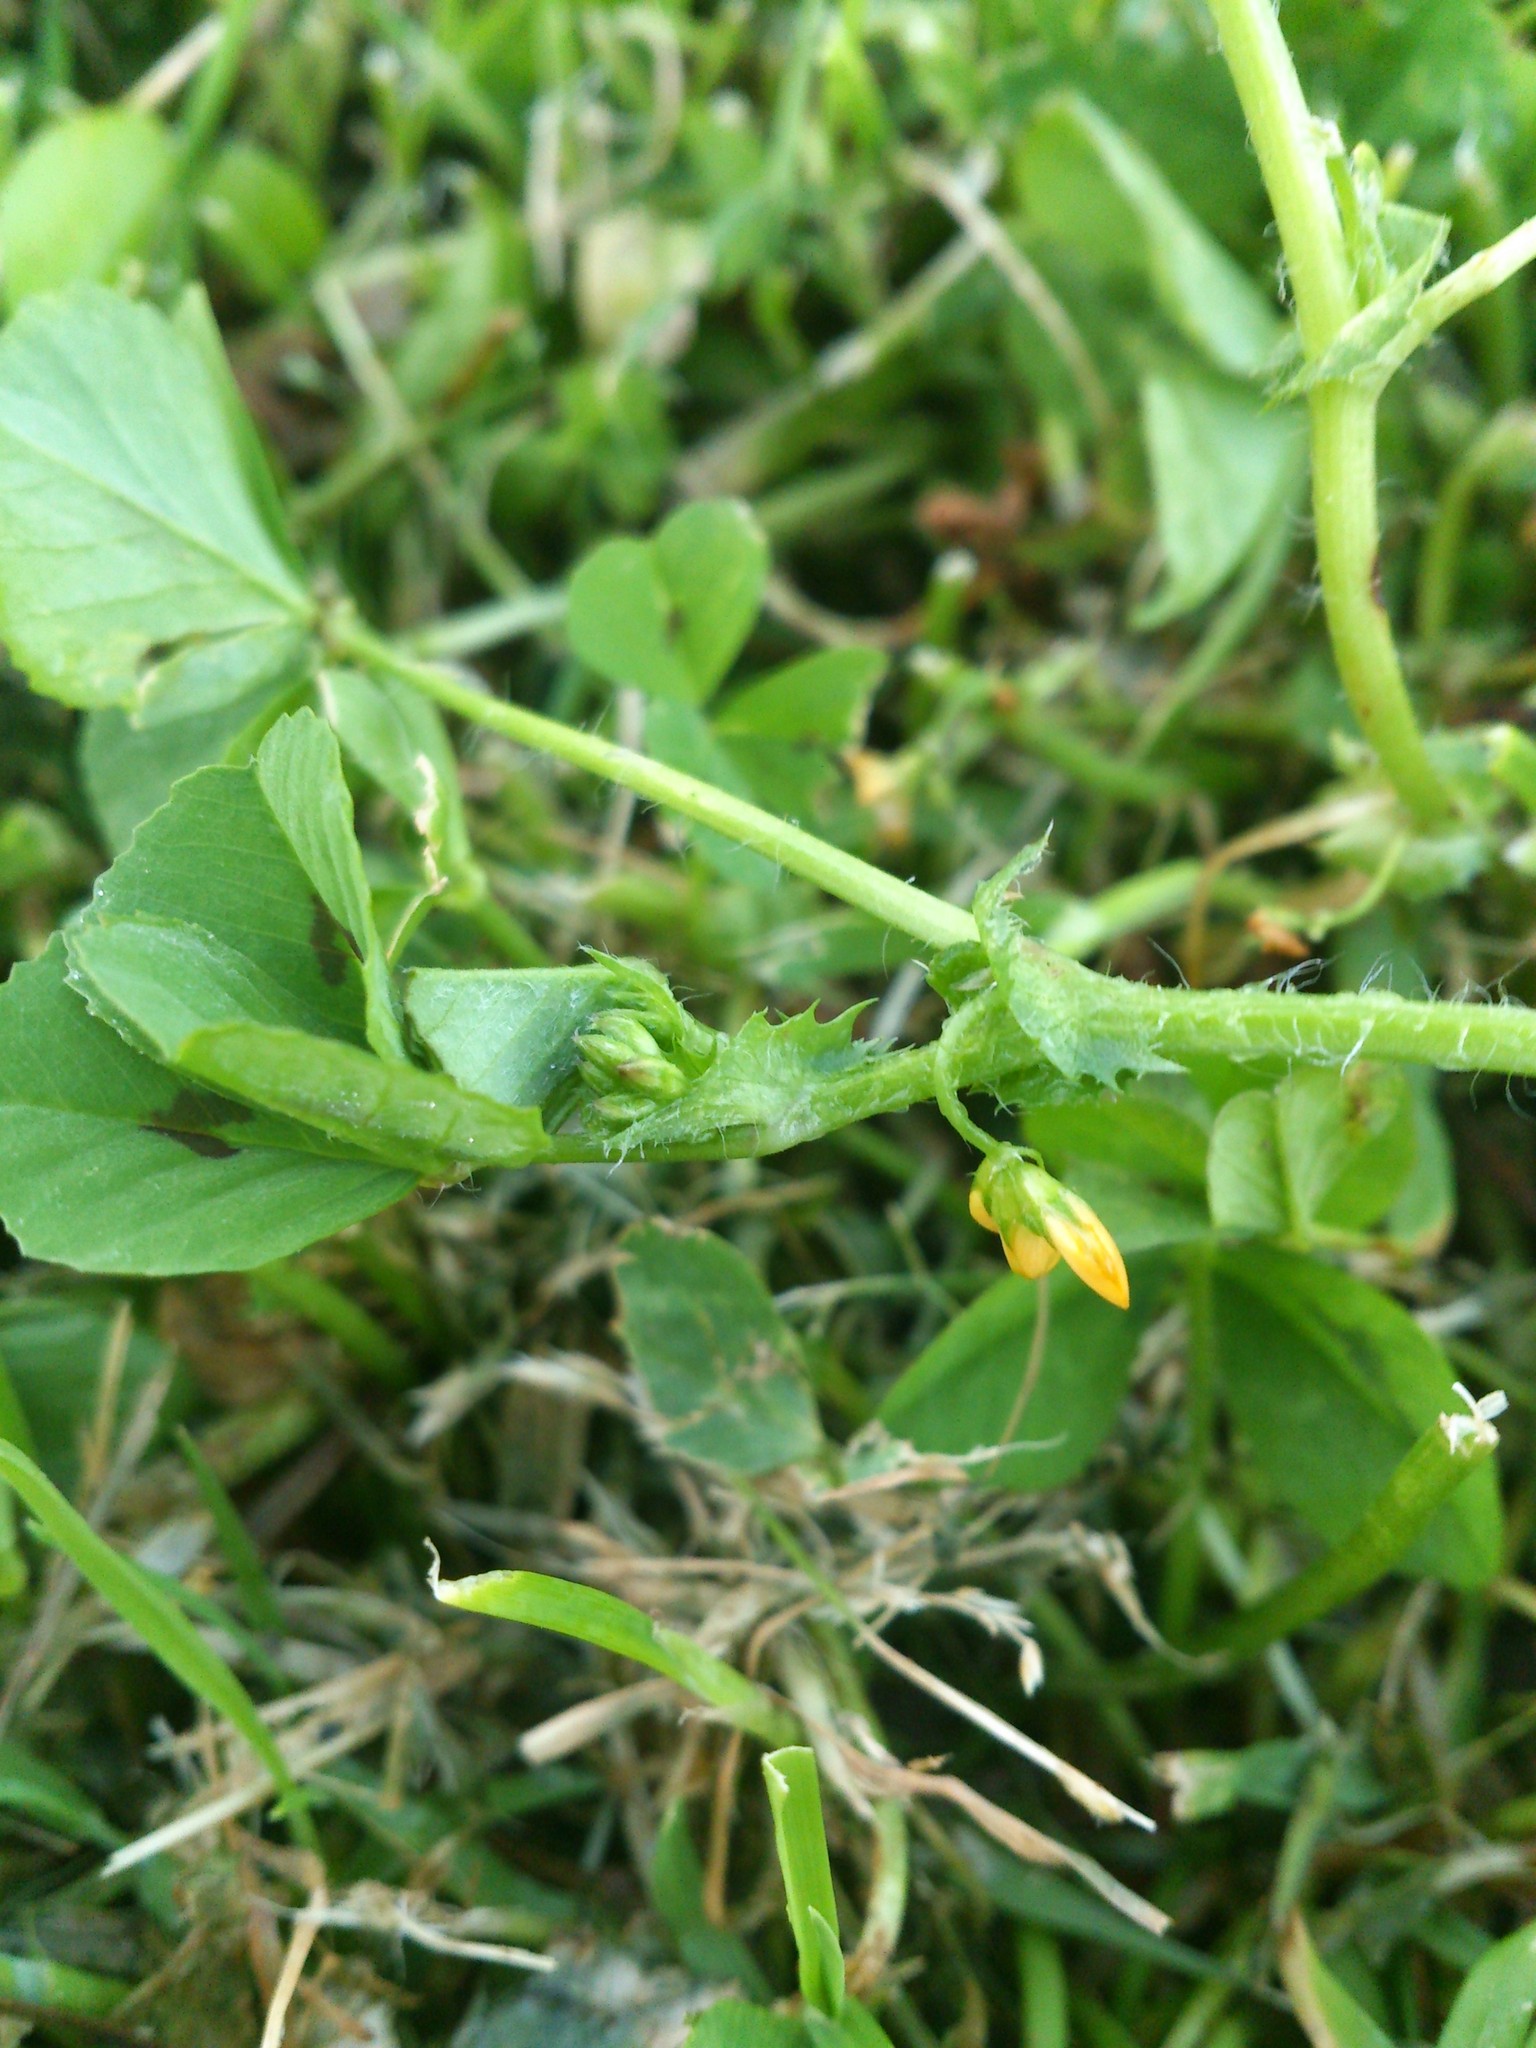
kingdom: Plantae
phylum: Tracheophyta
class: Magnoliopsida
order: Fabales
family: Fabaceae
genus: Medicago
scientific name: Medicago arabica
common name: Spotted medick
